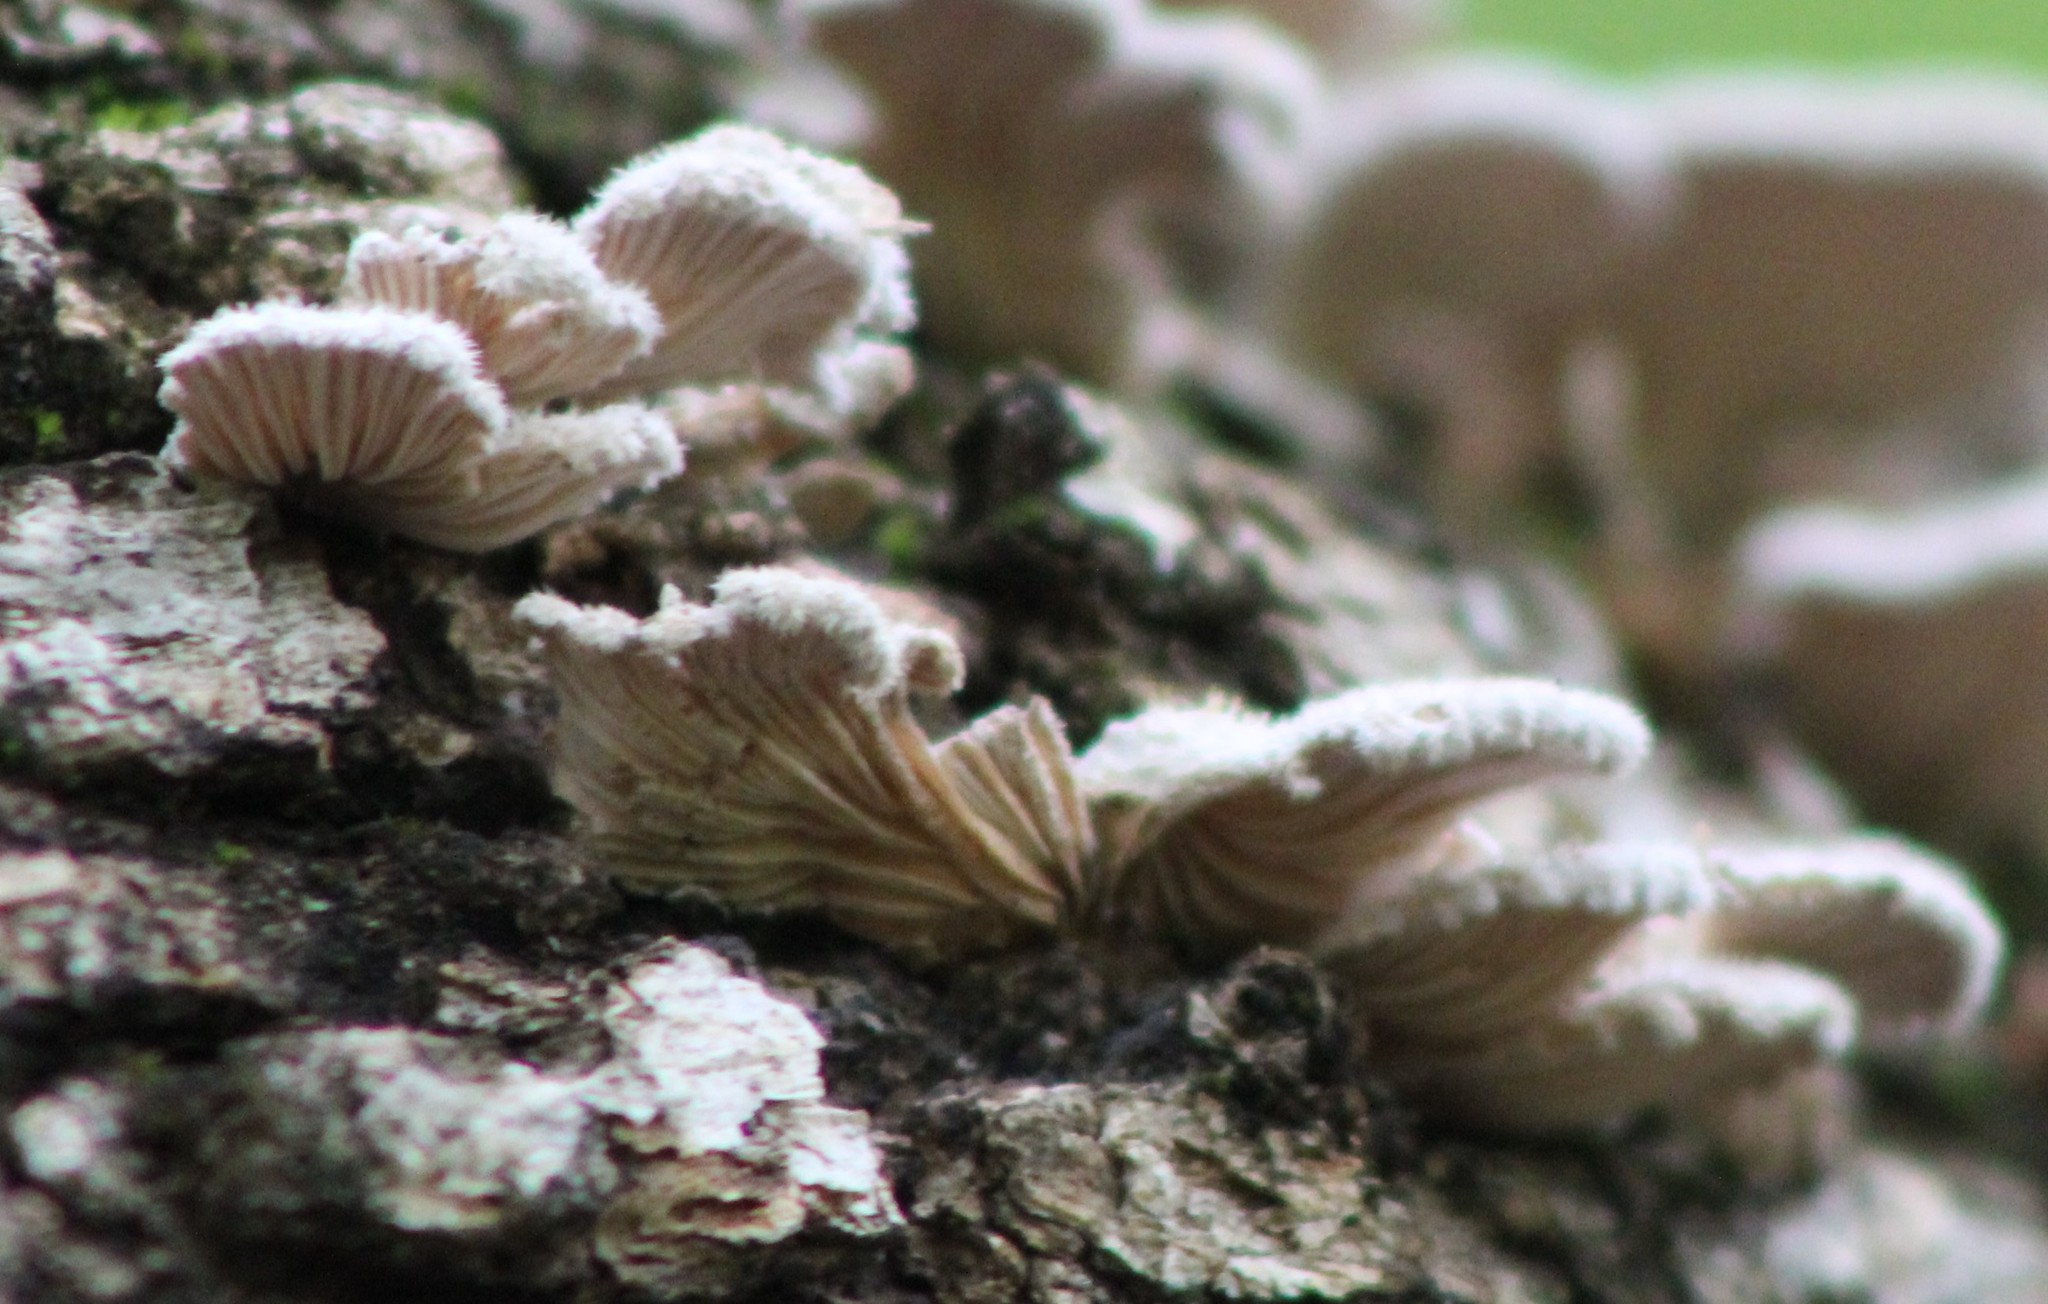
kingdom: Fungi
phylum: Basidiomycota
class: Agaricomycetes
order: Agaricales
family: Schizophyllaceae
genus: Schizophyllum
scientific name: Schizophyllum commune
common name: Common porecrust
